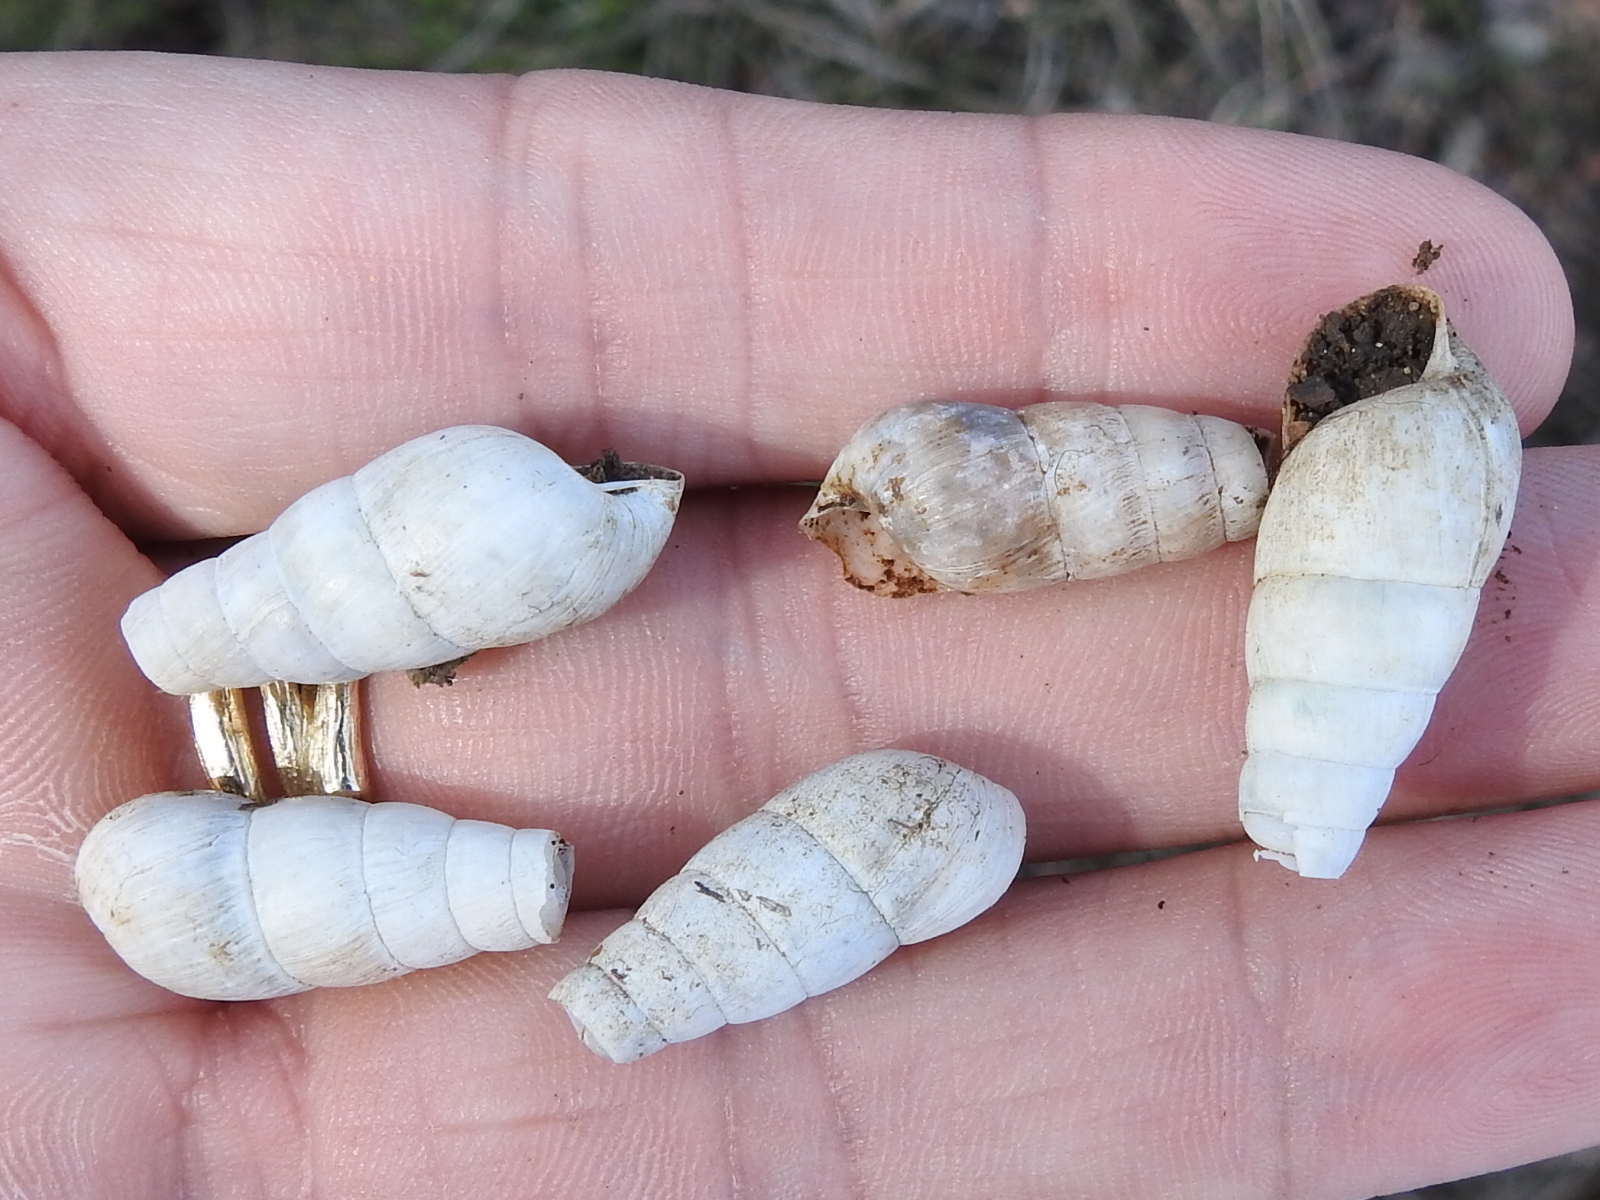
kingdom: Animalia
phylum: Mollusca
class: Gastropoda
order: Stylommatophora
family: Achatinidae
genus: Rumina
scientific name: Rumina decollata
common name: Decollate snail
